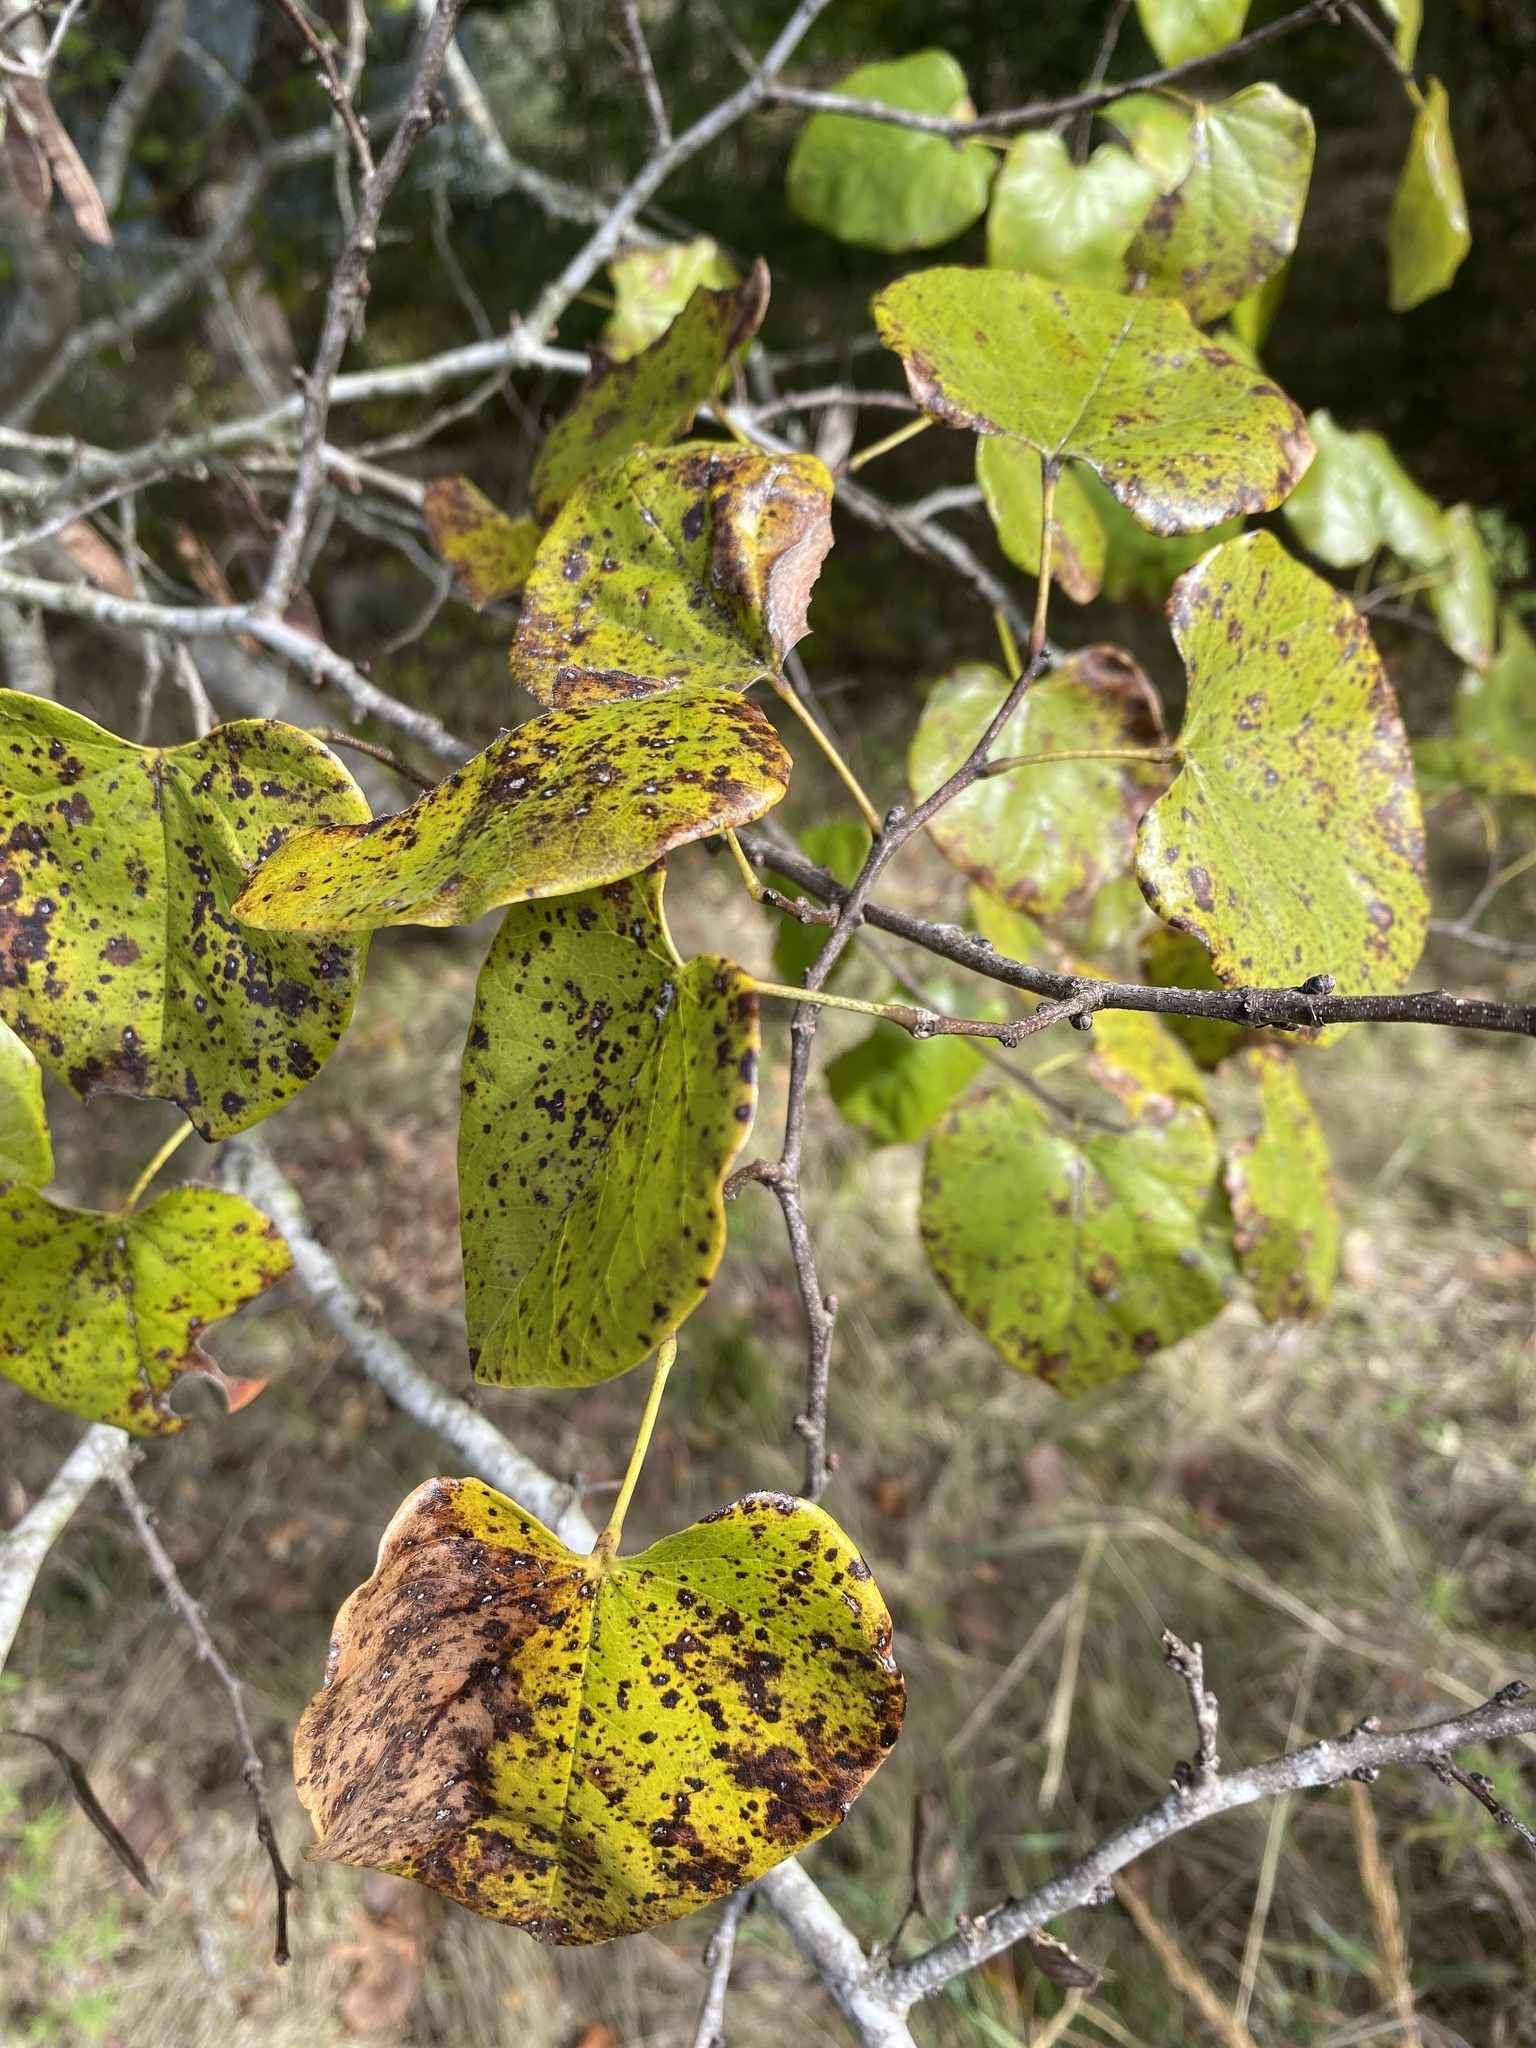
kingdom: Plantae
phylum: Tracheophyta
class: Magnoliopsida
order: Fabales
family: Fabaceae
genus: Cercis
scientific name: Cercis canadensis
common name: Eastern redbud
